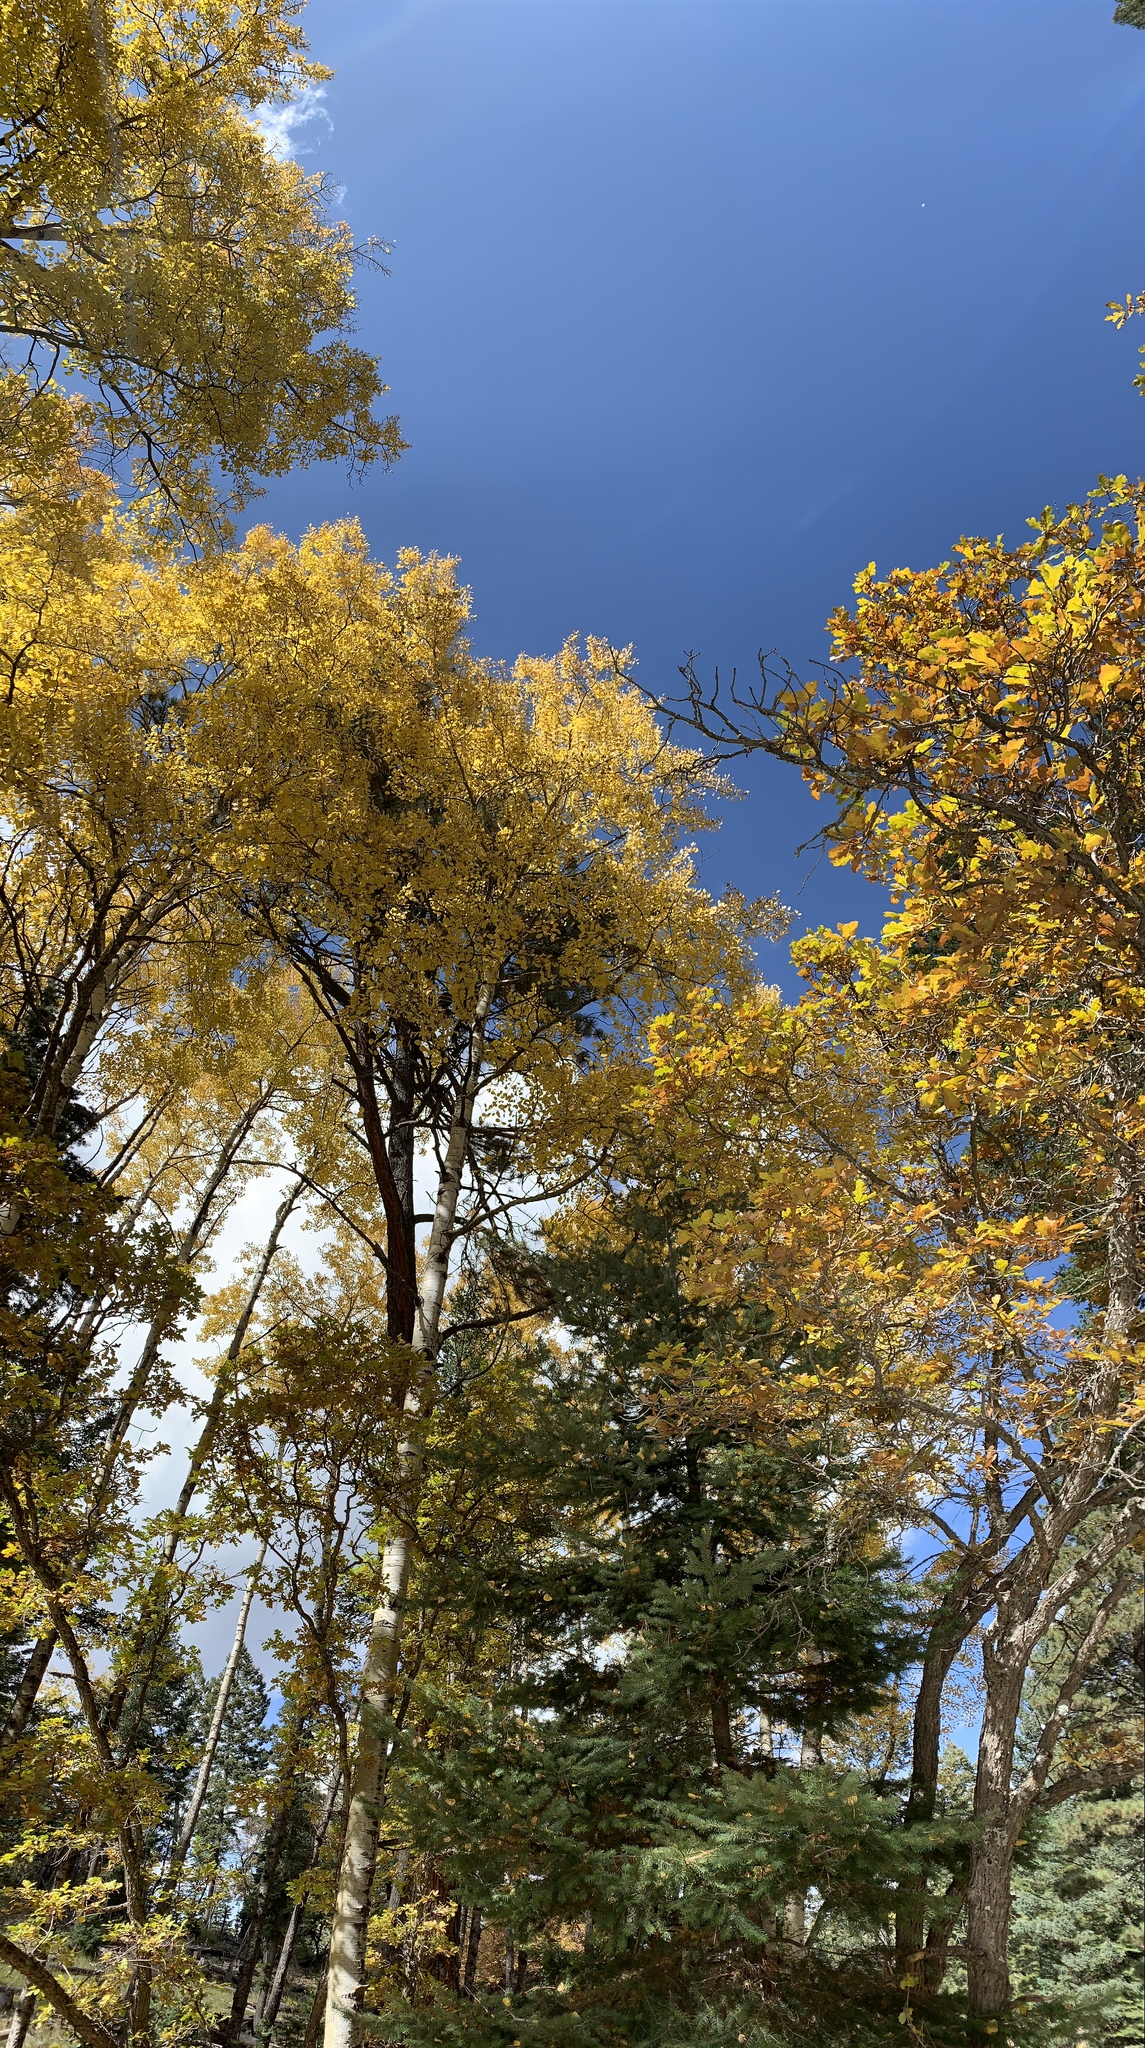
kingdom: Plantae
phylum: Tracheophyta
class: Magnoliopsida
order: Fagales
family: Fagaceae
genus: Quercus
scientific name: Quercus gambelii
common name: Gambel oak
